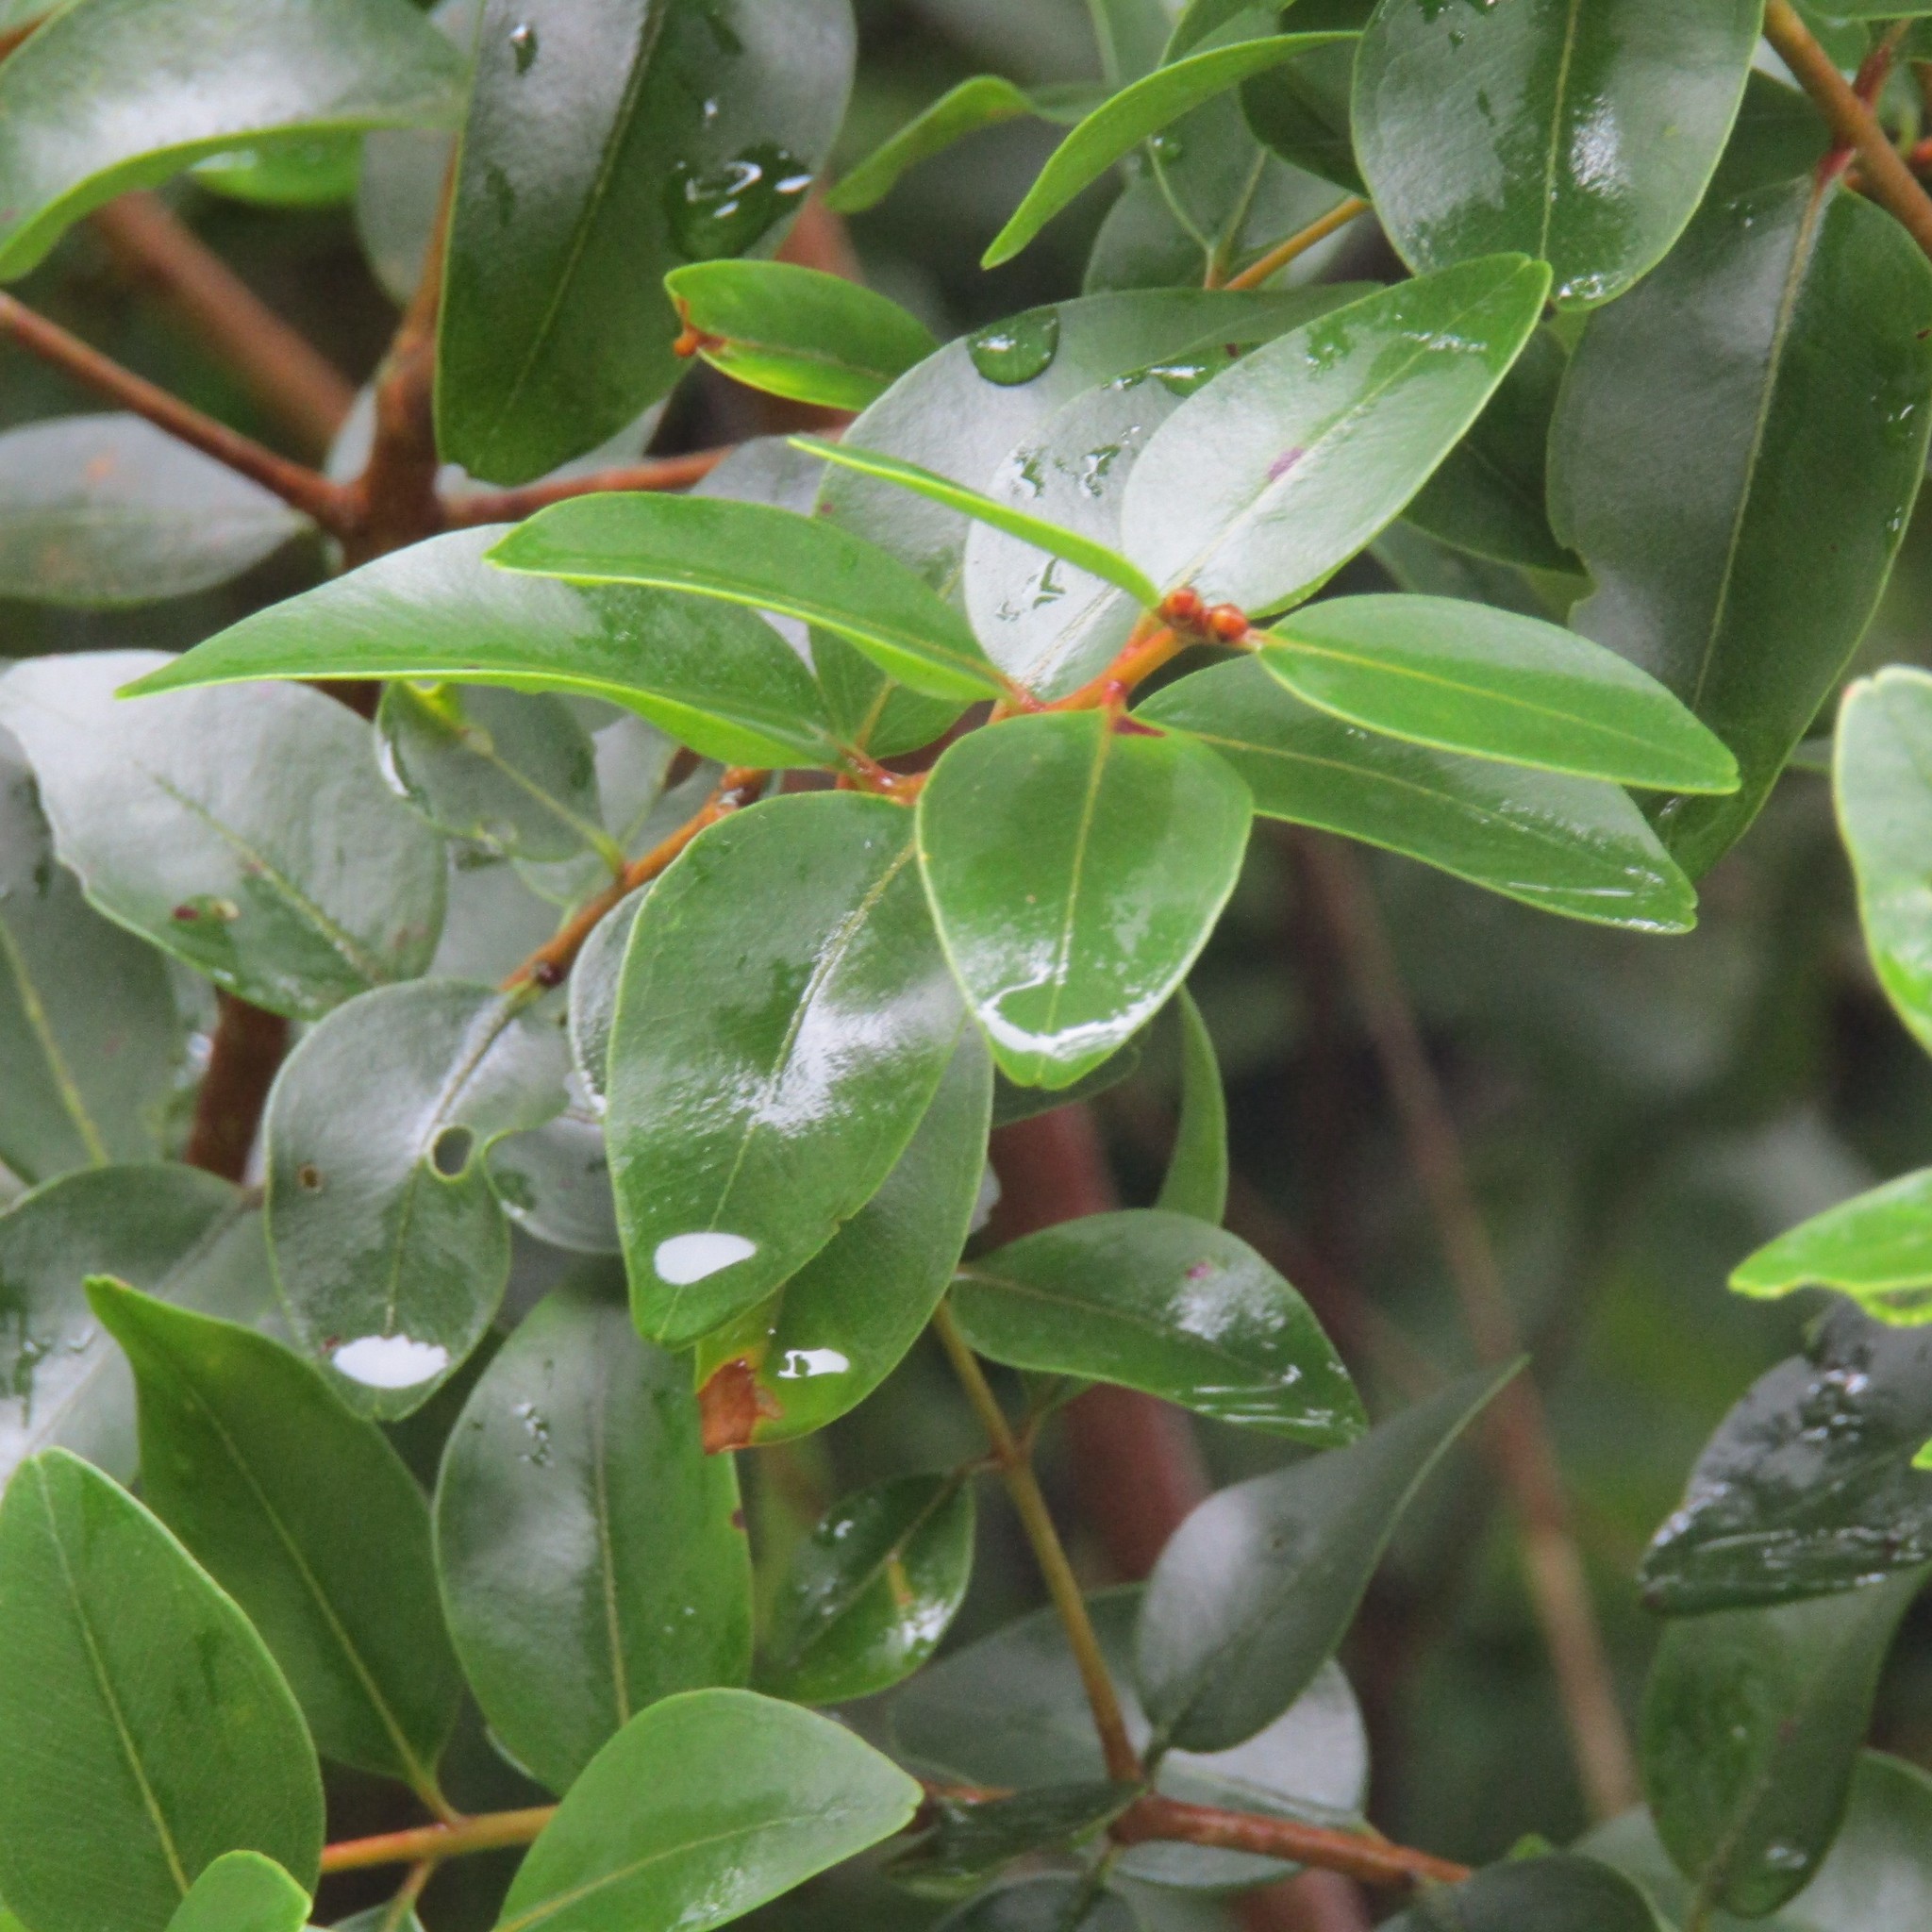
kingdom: Plantae
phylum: Tracheophyta
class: Magnoliopsida
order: Myrtales
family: Myrtaceae
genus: Metrosideros
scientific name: Metrosideros robusta
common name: Northern rata
